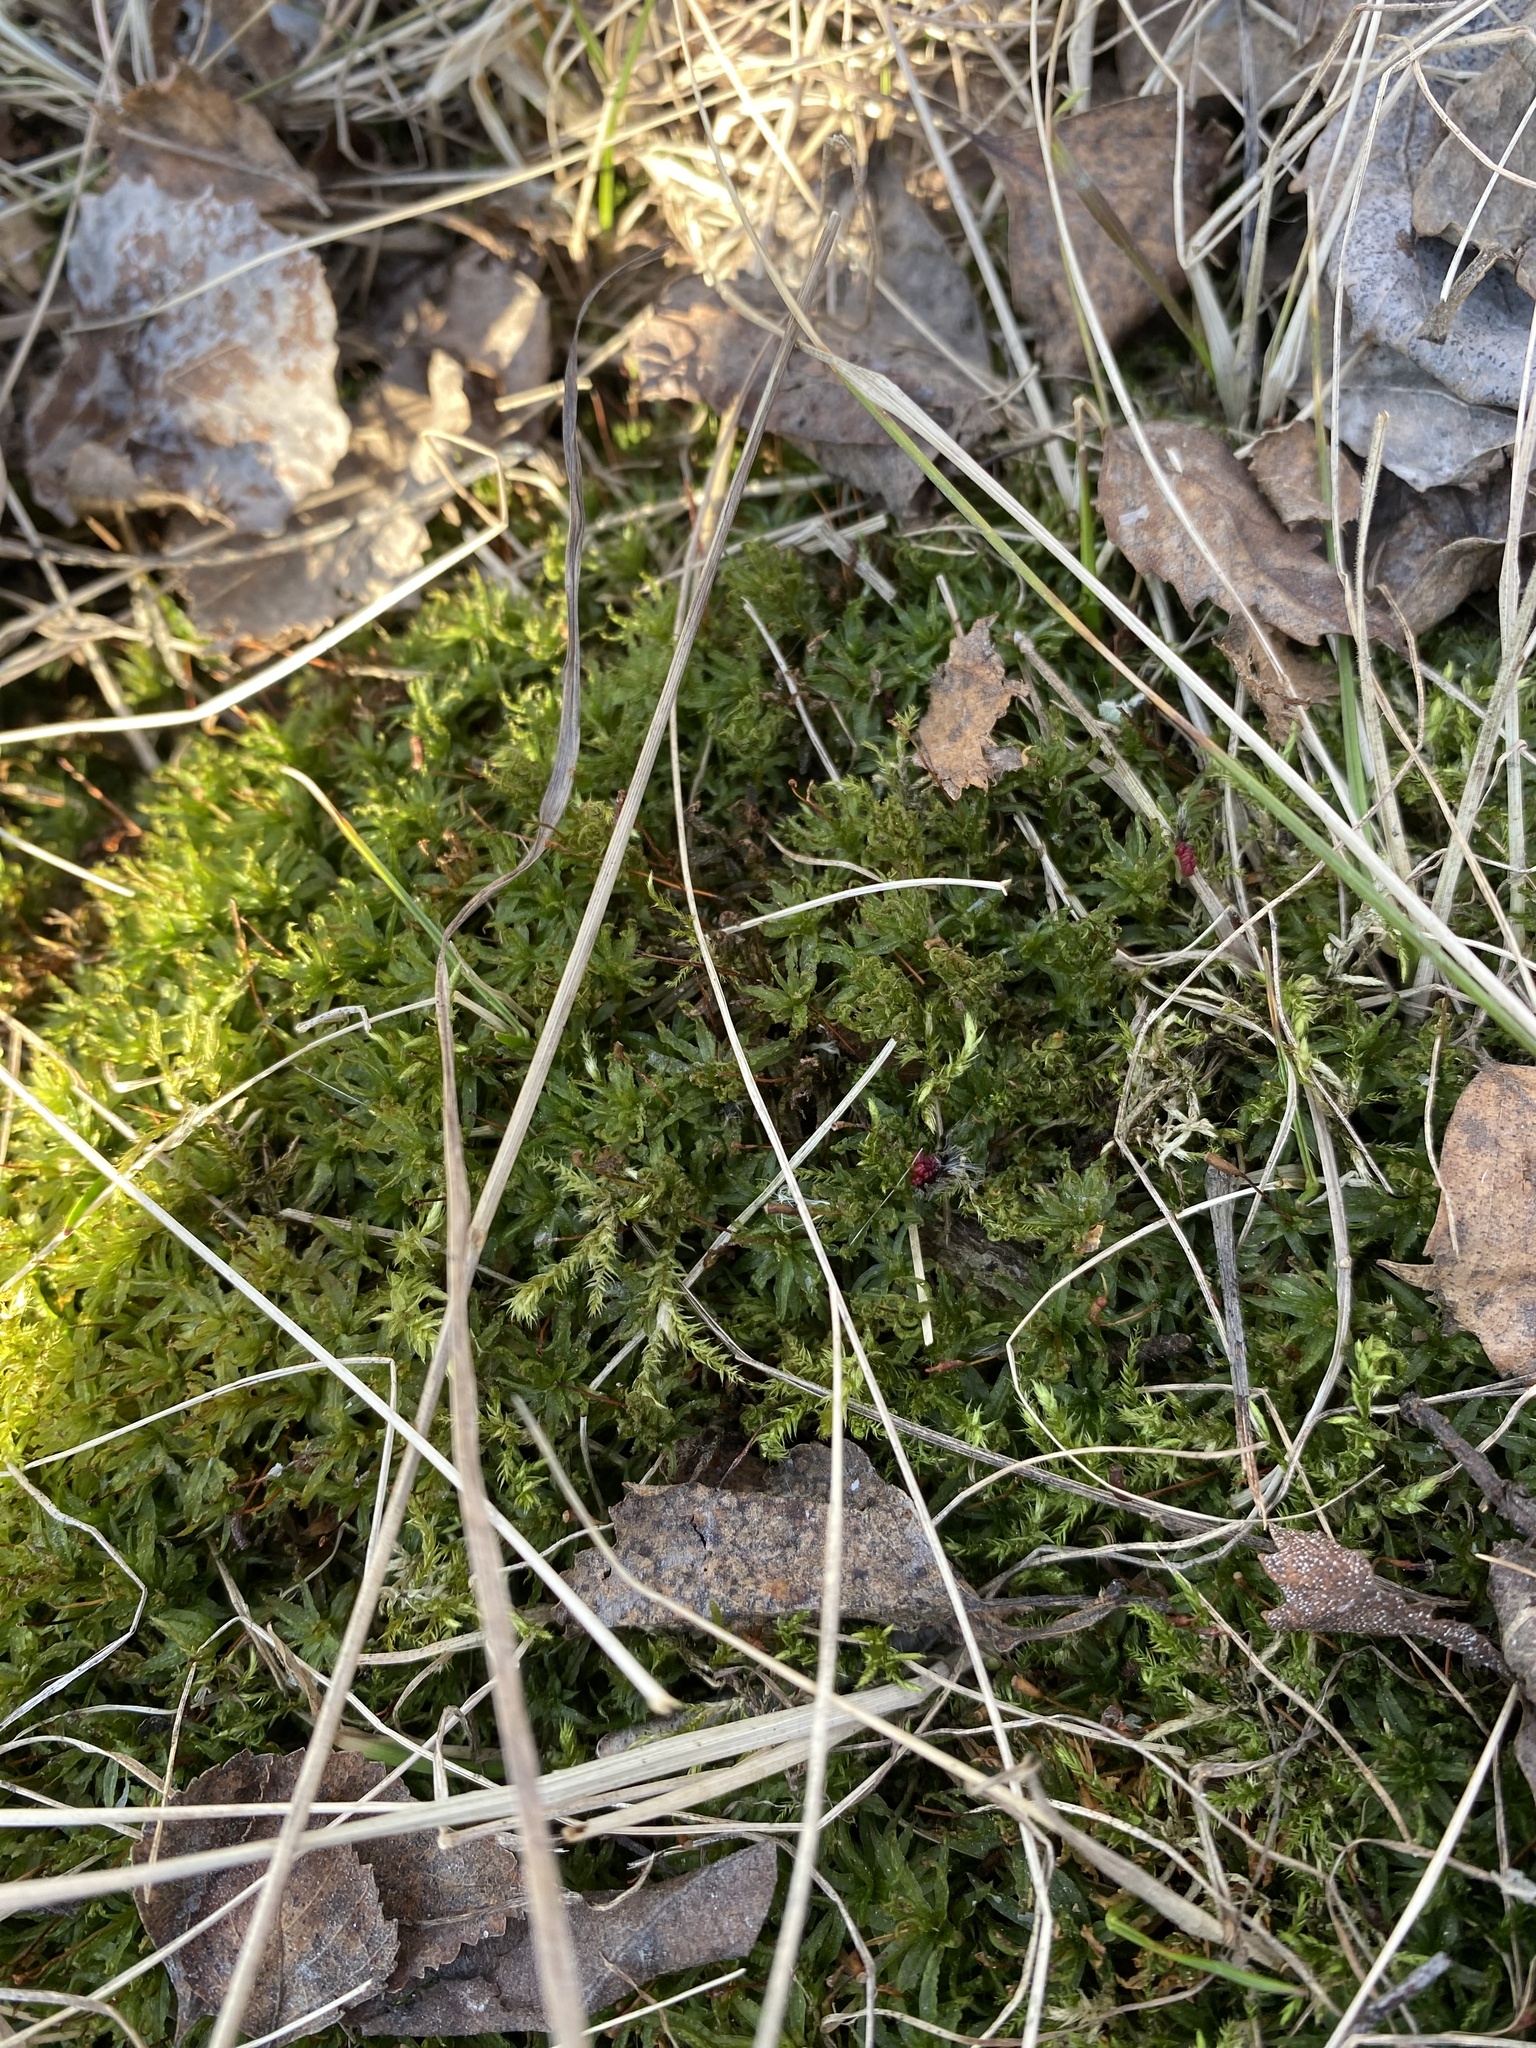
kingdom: Plantae
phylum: Bryophyta
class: Polytrichopsida
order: Polytrichales
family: Polytrichaceae
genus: Atrichum
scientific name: Atrichum undulatum
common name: Common smoothcap
